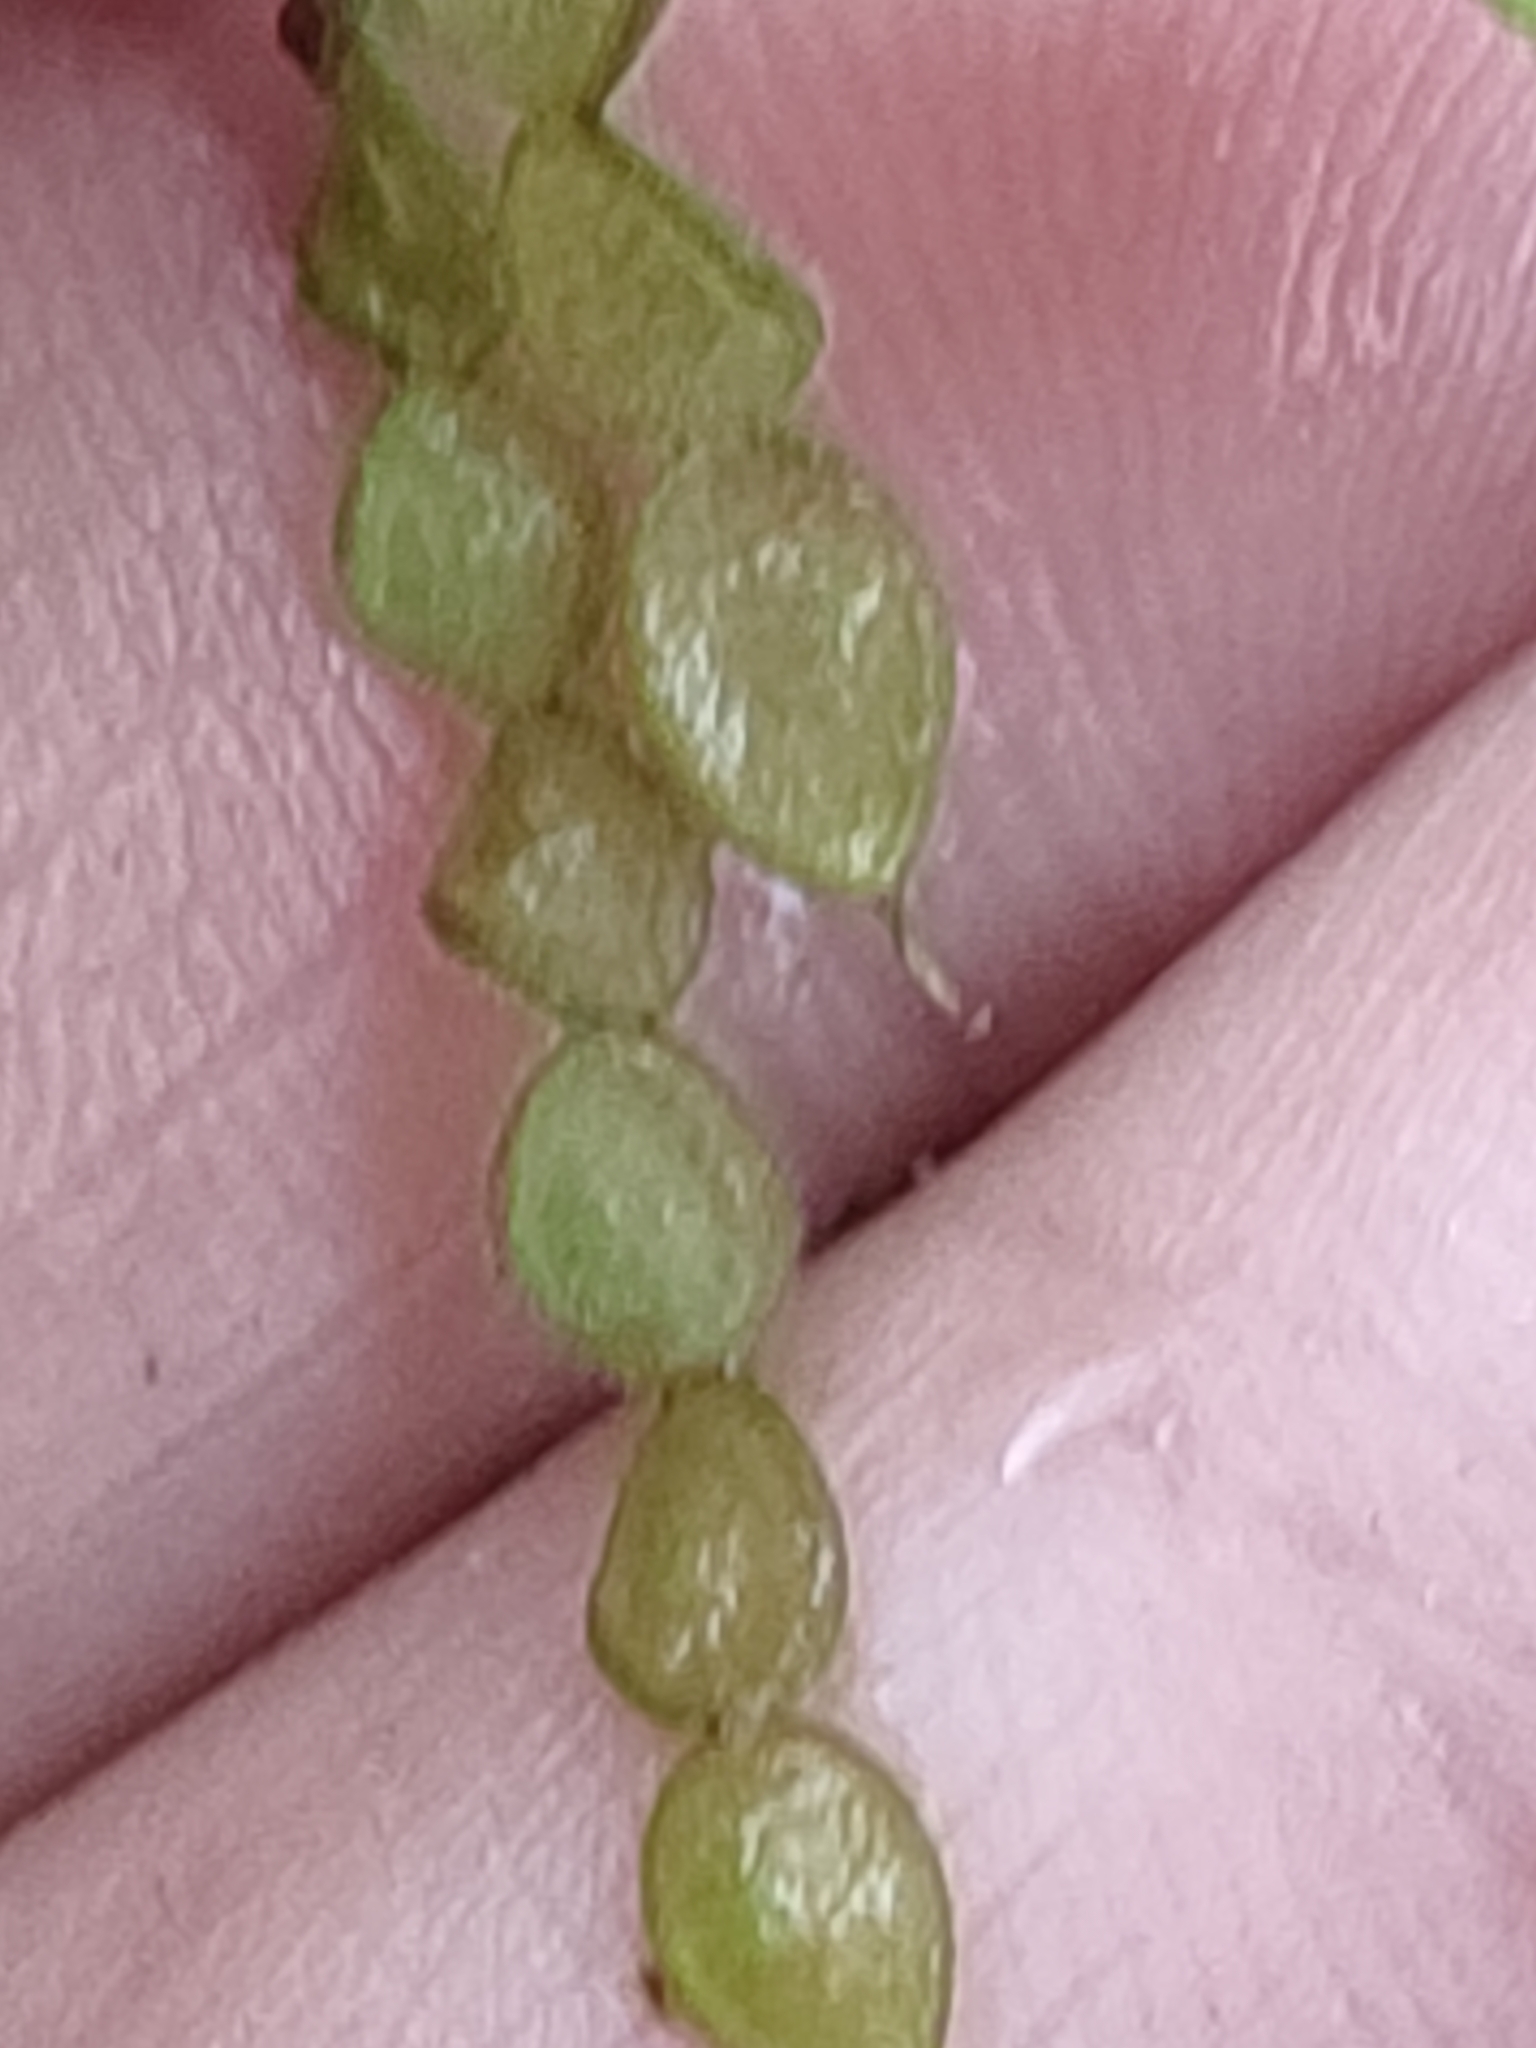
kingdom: Plantae
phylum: Tracheophyta
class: Magnoliopsida
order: Fabales
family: Fabaceae
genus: Desmodium
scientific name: Desmodium tortuosum
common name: Dixie ticktrefoil
